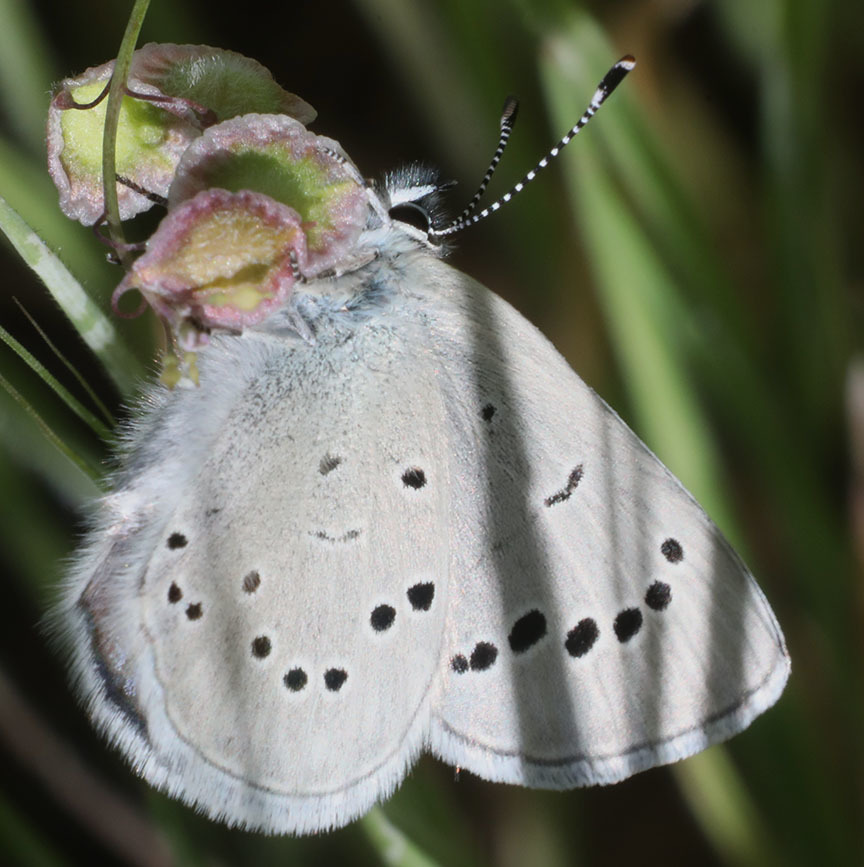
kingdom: Animalia
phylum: Arthropoda
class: Insecta
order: Lepidoptera
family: Lycaenidae
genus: Glaucopsyche
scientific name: Glaucopsyche lygdamus
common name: Silvery blue
